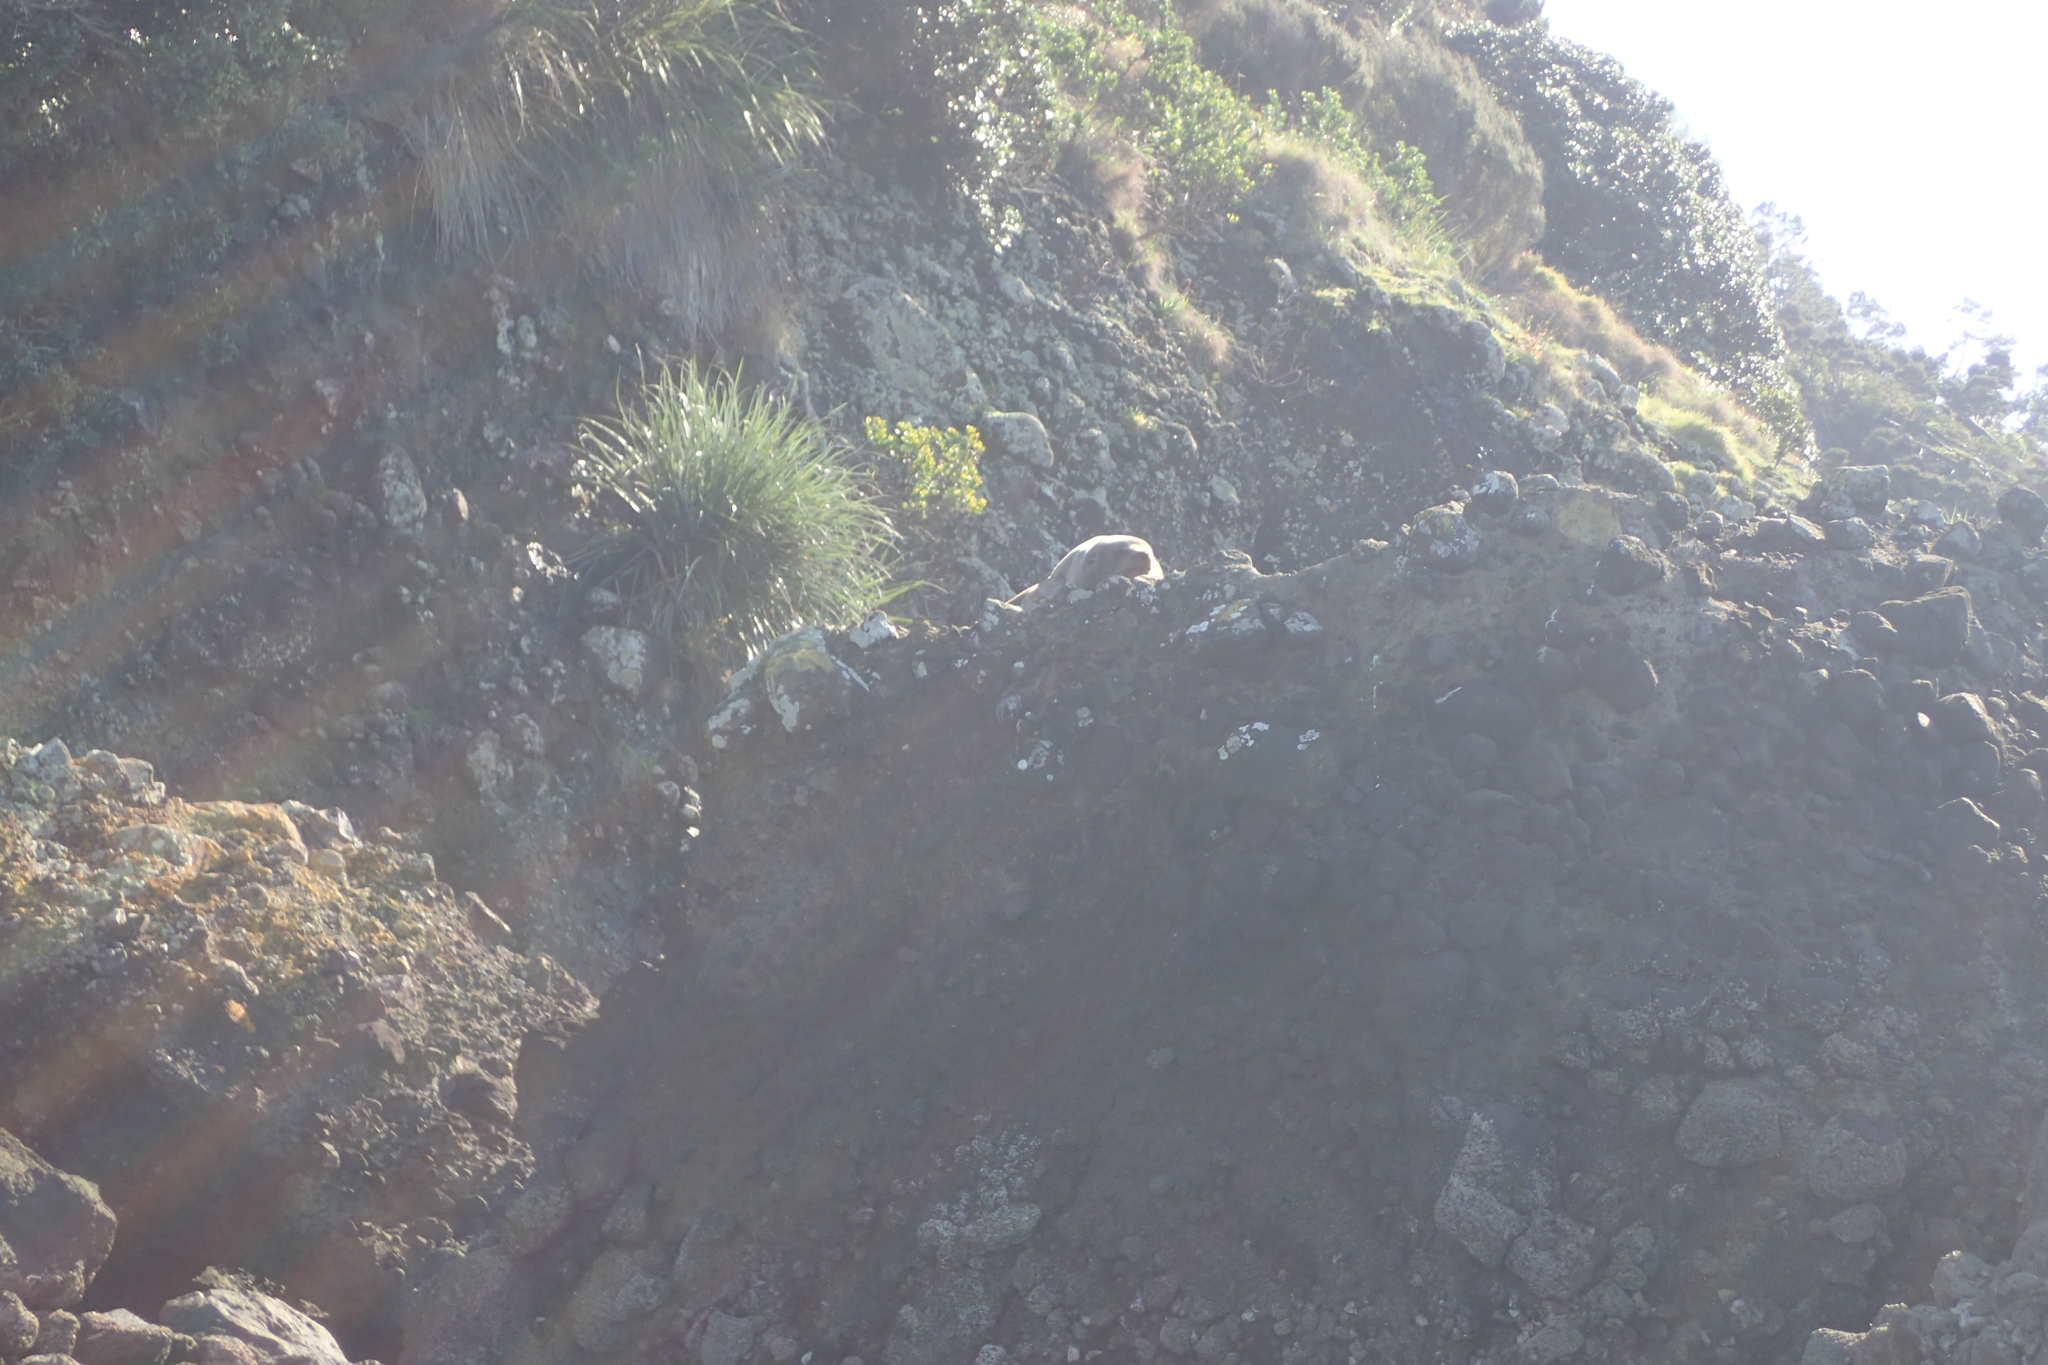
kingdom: Animalia
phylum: Chordata
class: Mammalia
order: Carnivora
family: Otariidae
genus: Arctocephalus
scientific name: Arctocephalus forsteri
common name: New zealand fur seal
